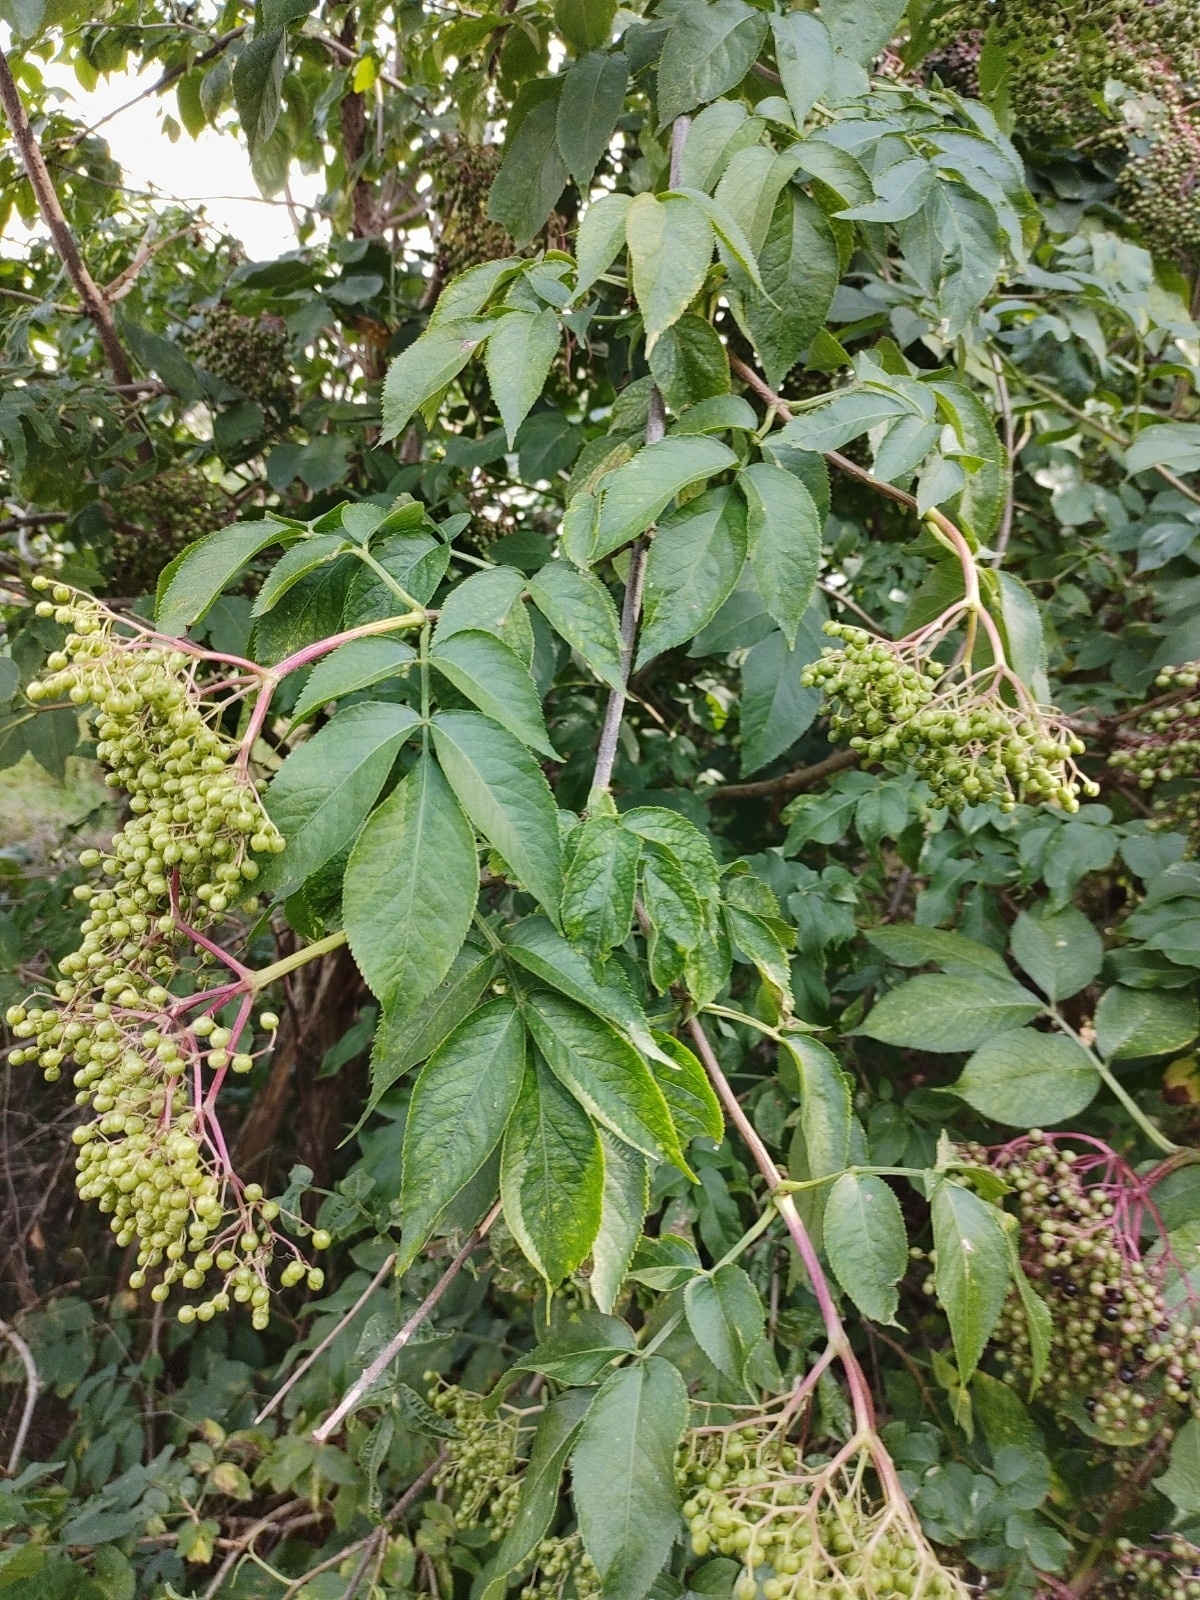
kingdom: Plantae
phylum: Tracheophyta
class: Magnoliopsida
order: Dipsacales
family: Viburnaceae
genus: Sambucus
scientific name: Sambucus nigra
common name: Elder
